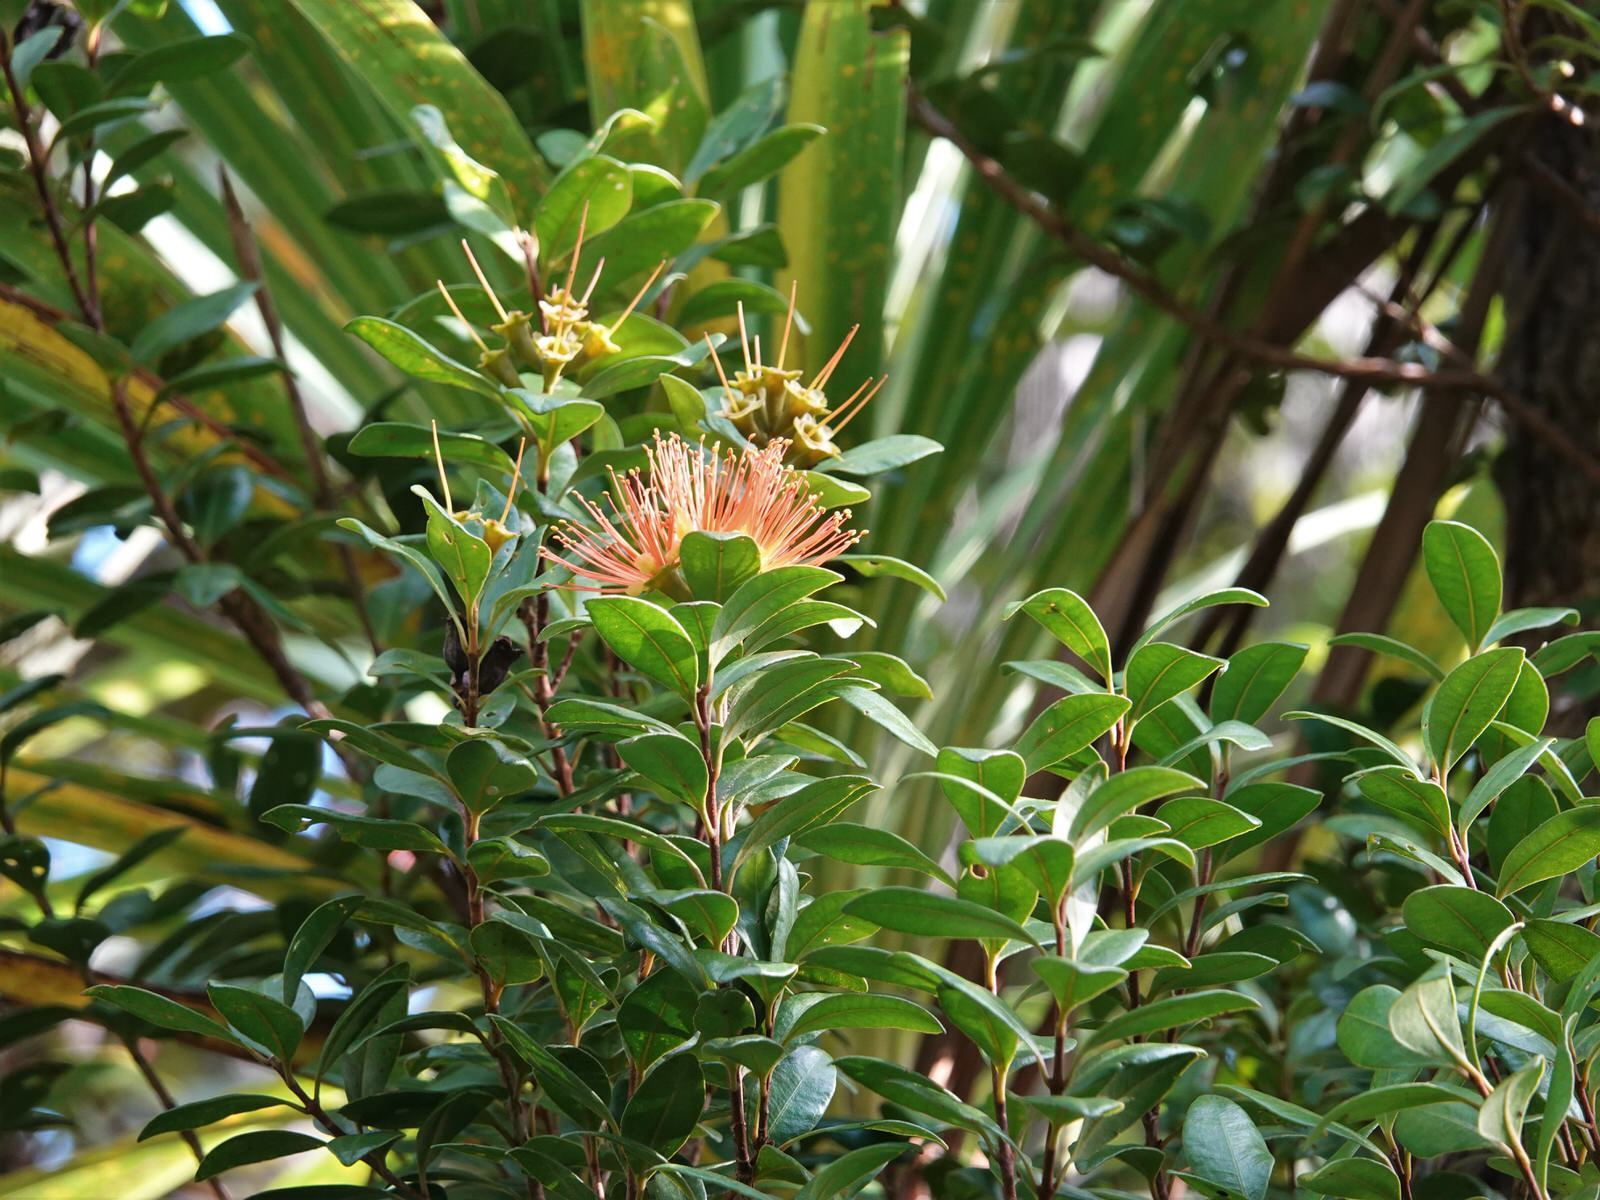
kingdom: Plantae
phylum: Tracheophyta
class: Magnoliopsida
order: Myrtales
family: Myrtaceae
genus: Metrosideros
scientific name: Metrosideros fulgens
